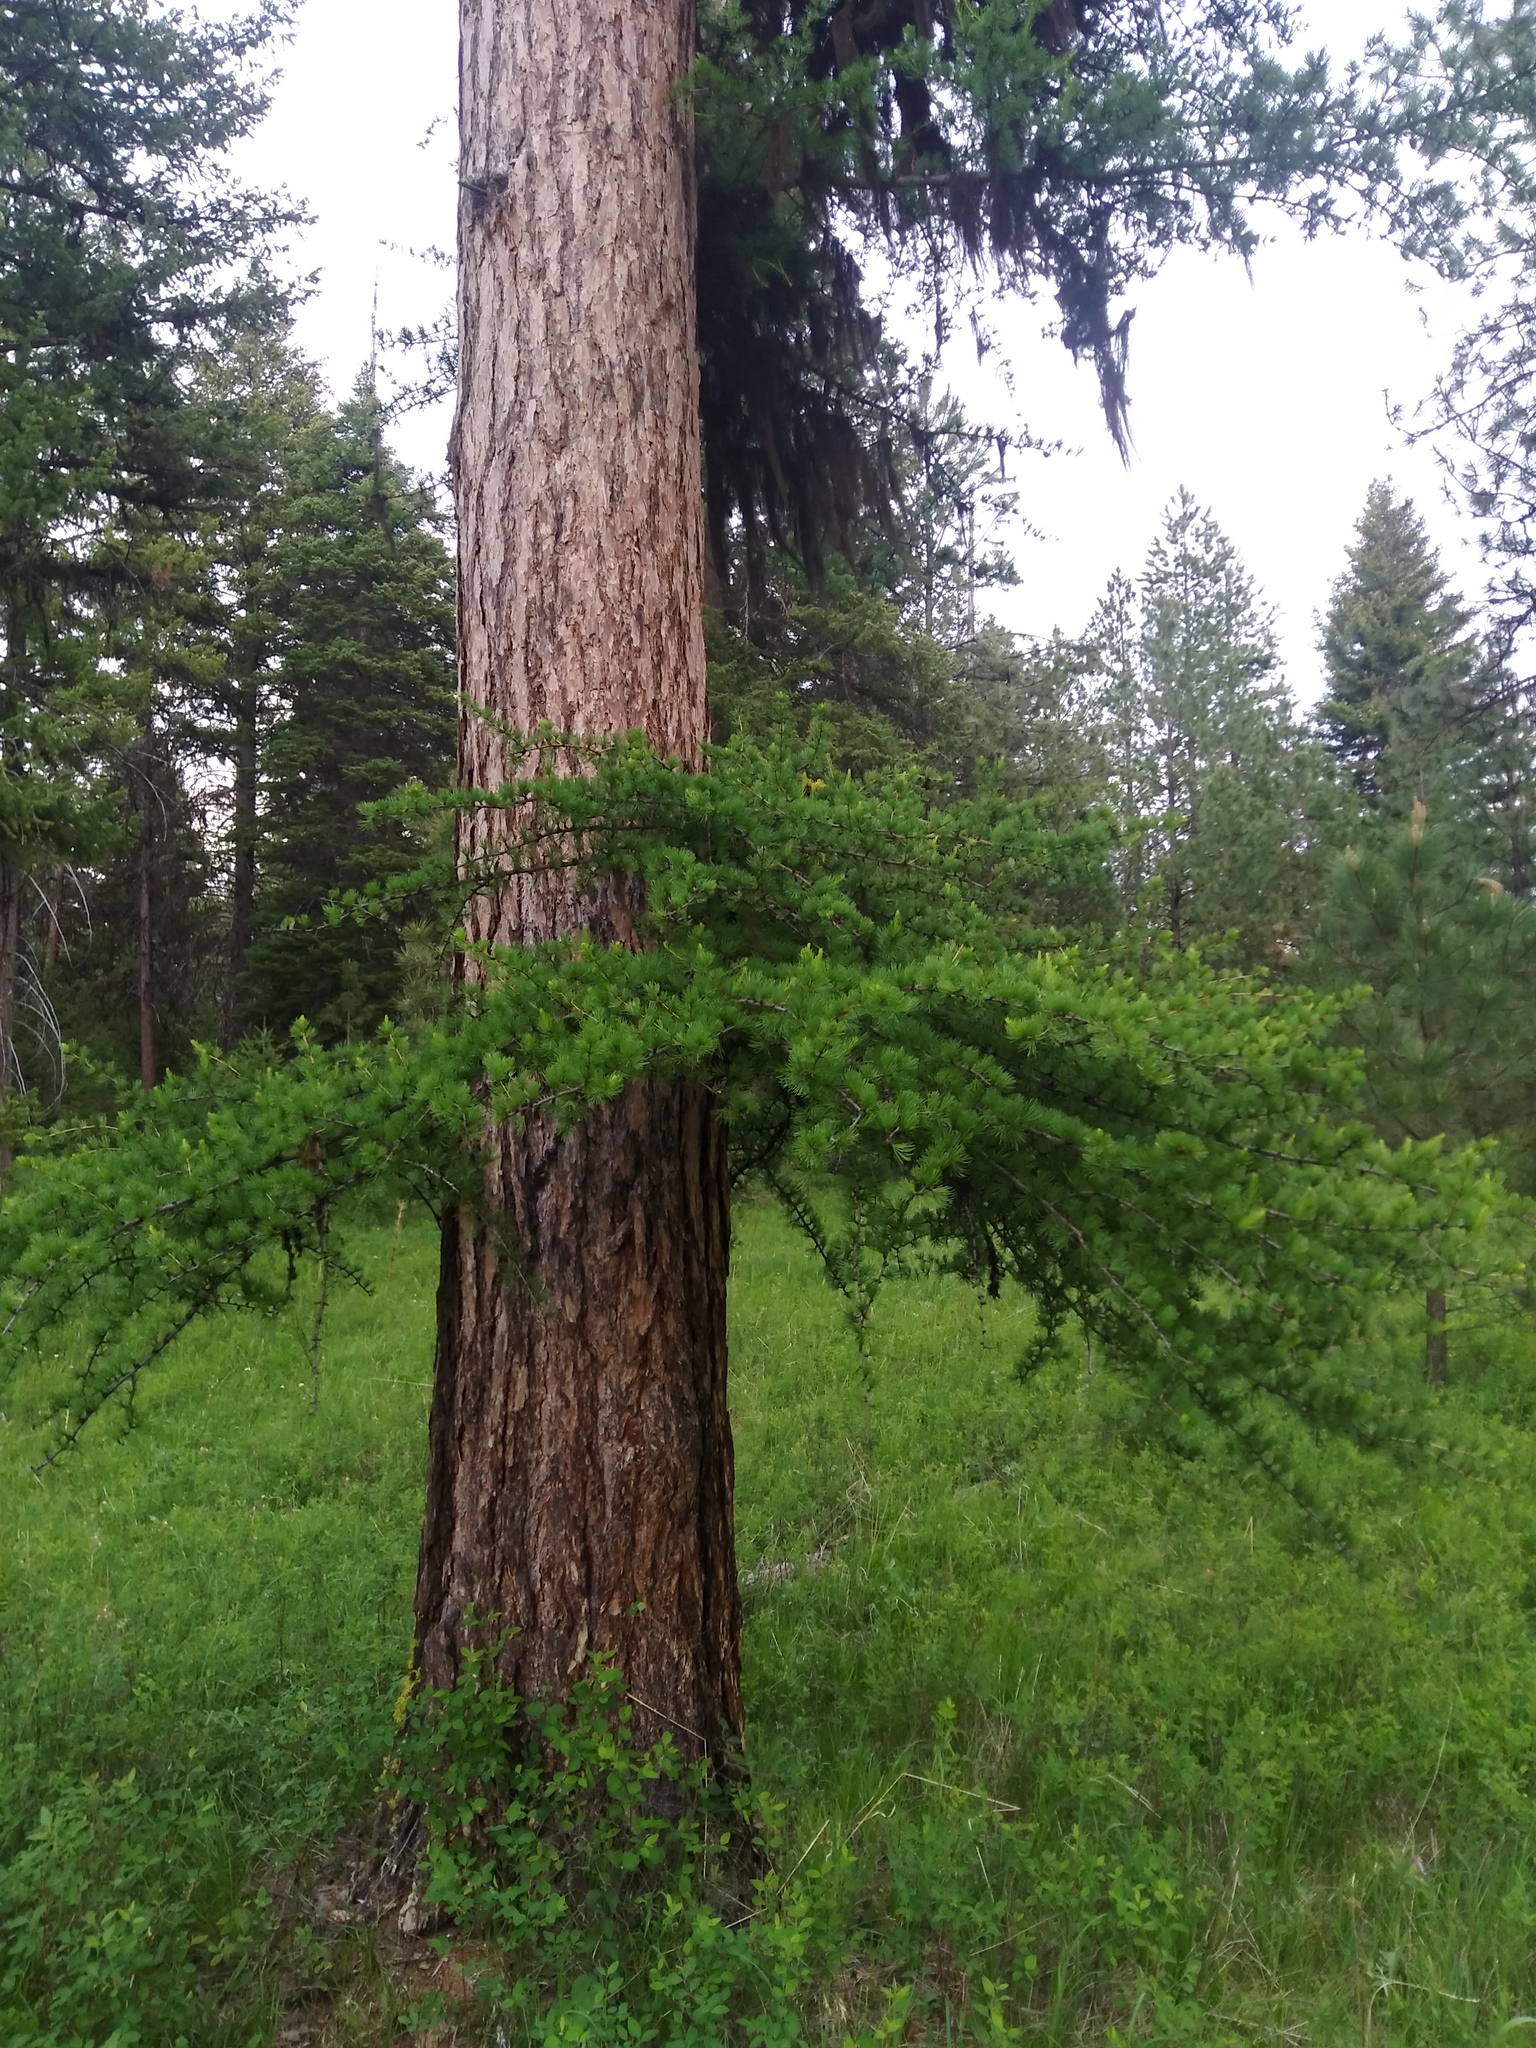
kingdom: Plantae
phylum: Tracheophyta
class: Pinopsida
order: Pinales
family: Pinaceae
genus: Larix
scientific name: Larix occidentalis
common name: Western larch
